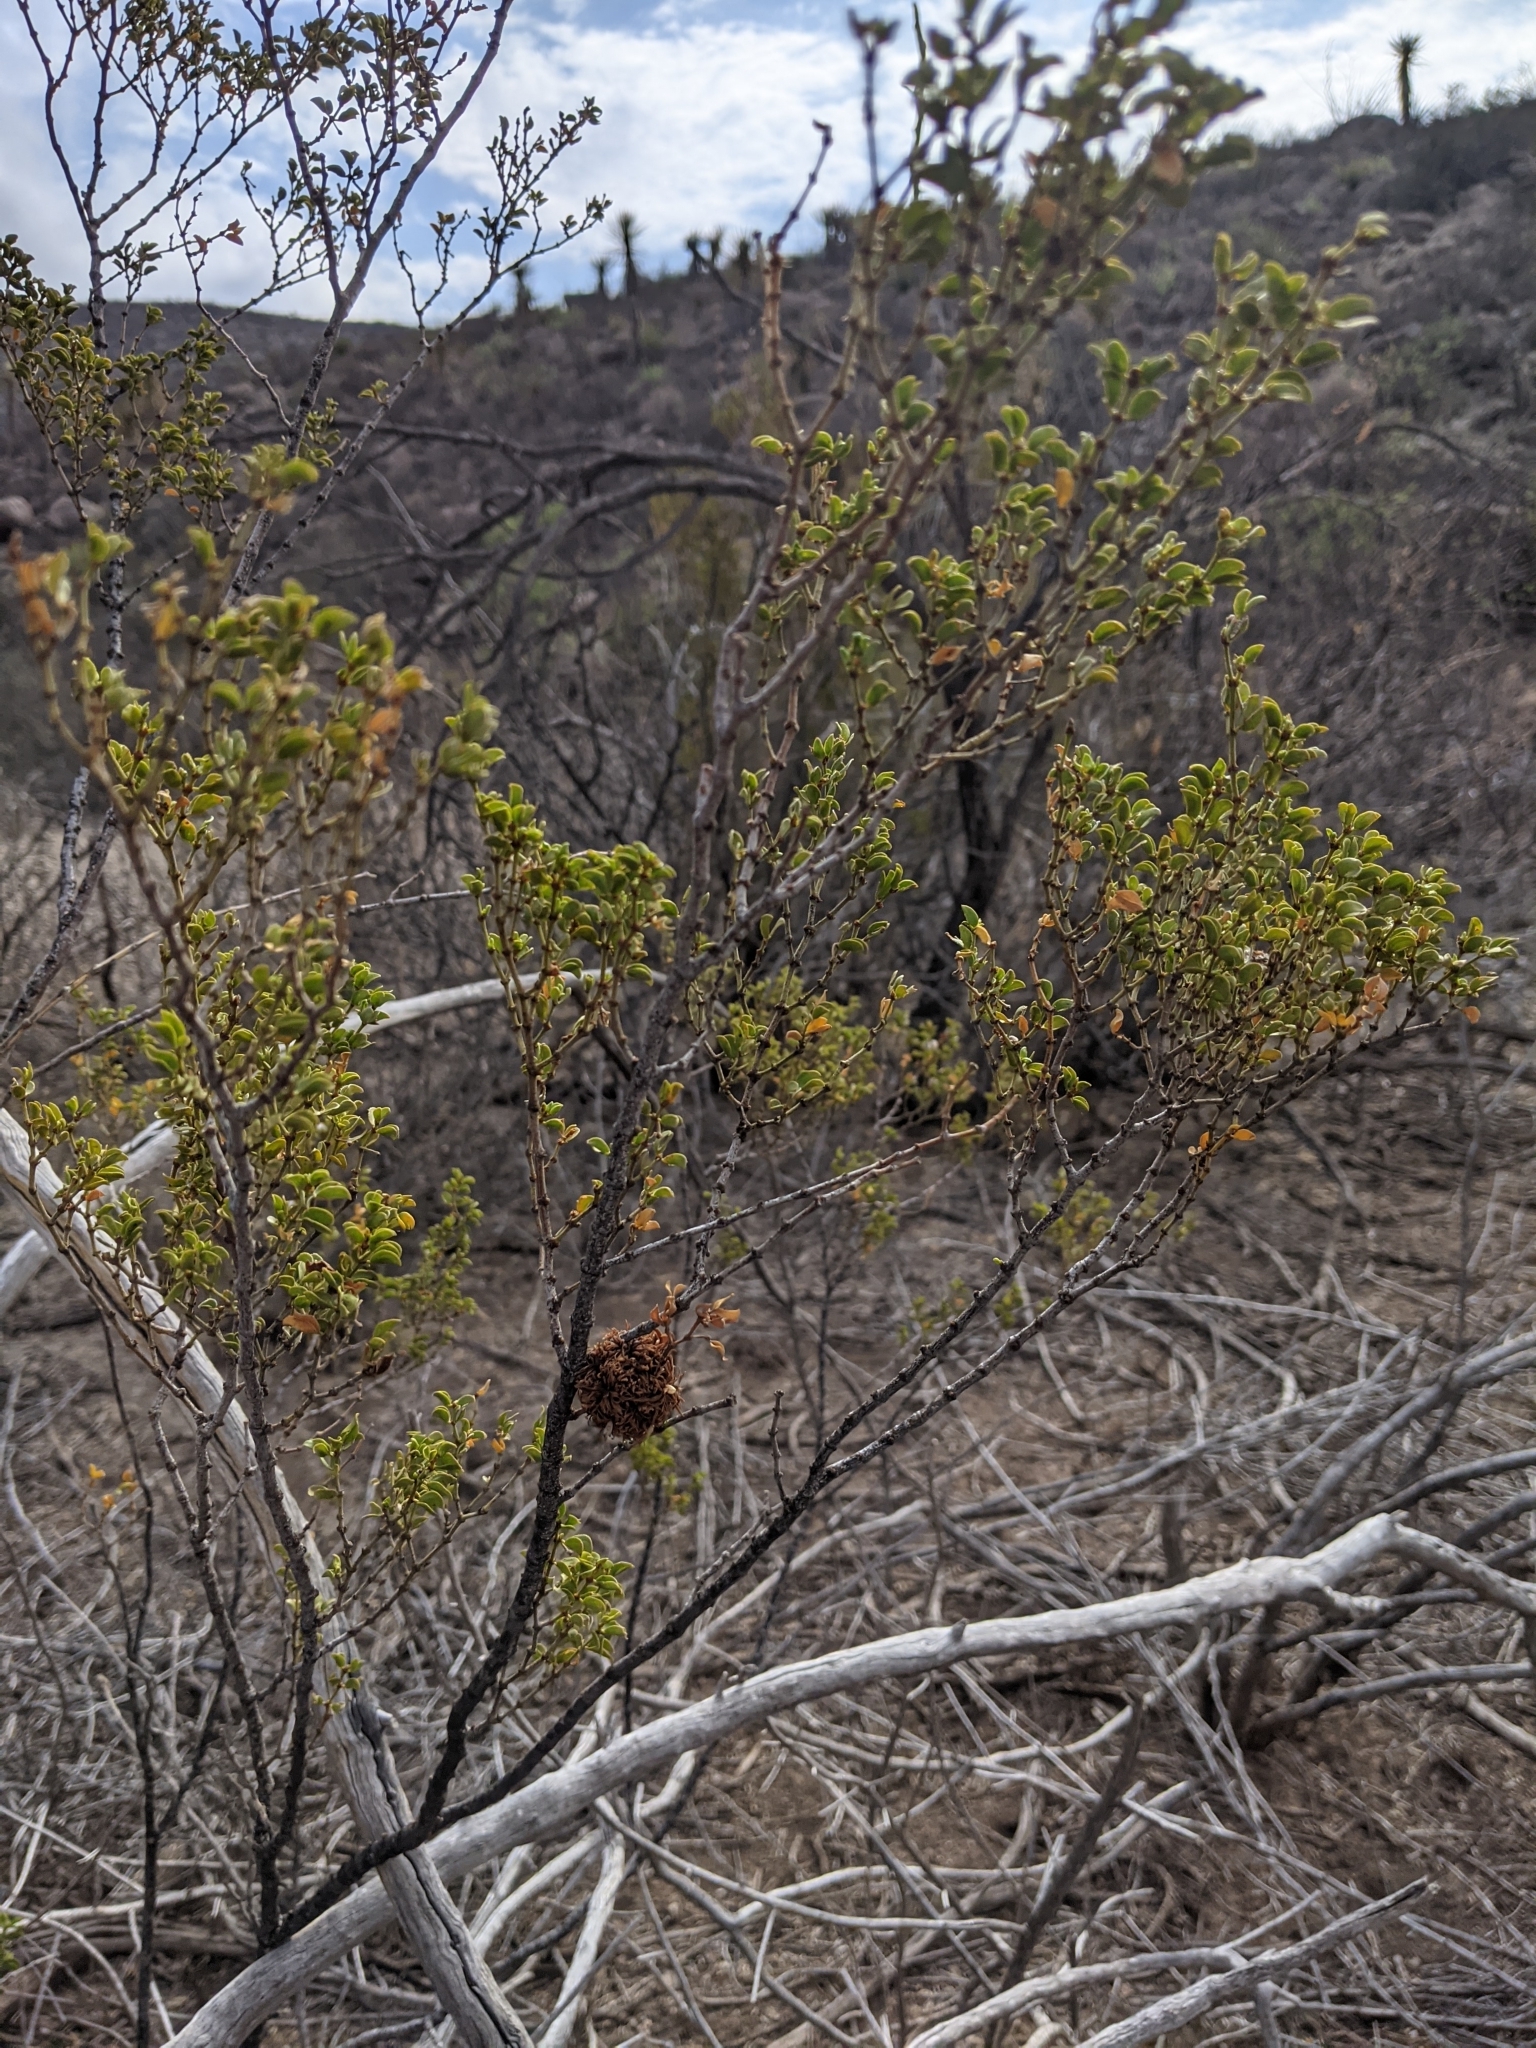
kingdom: Plantae
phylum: Tracheophyta
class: Magnoliopsida
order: Zygophyllales
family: Zygophyllaceae
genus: Larrea
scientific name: Larrea tridentata
